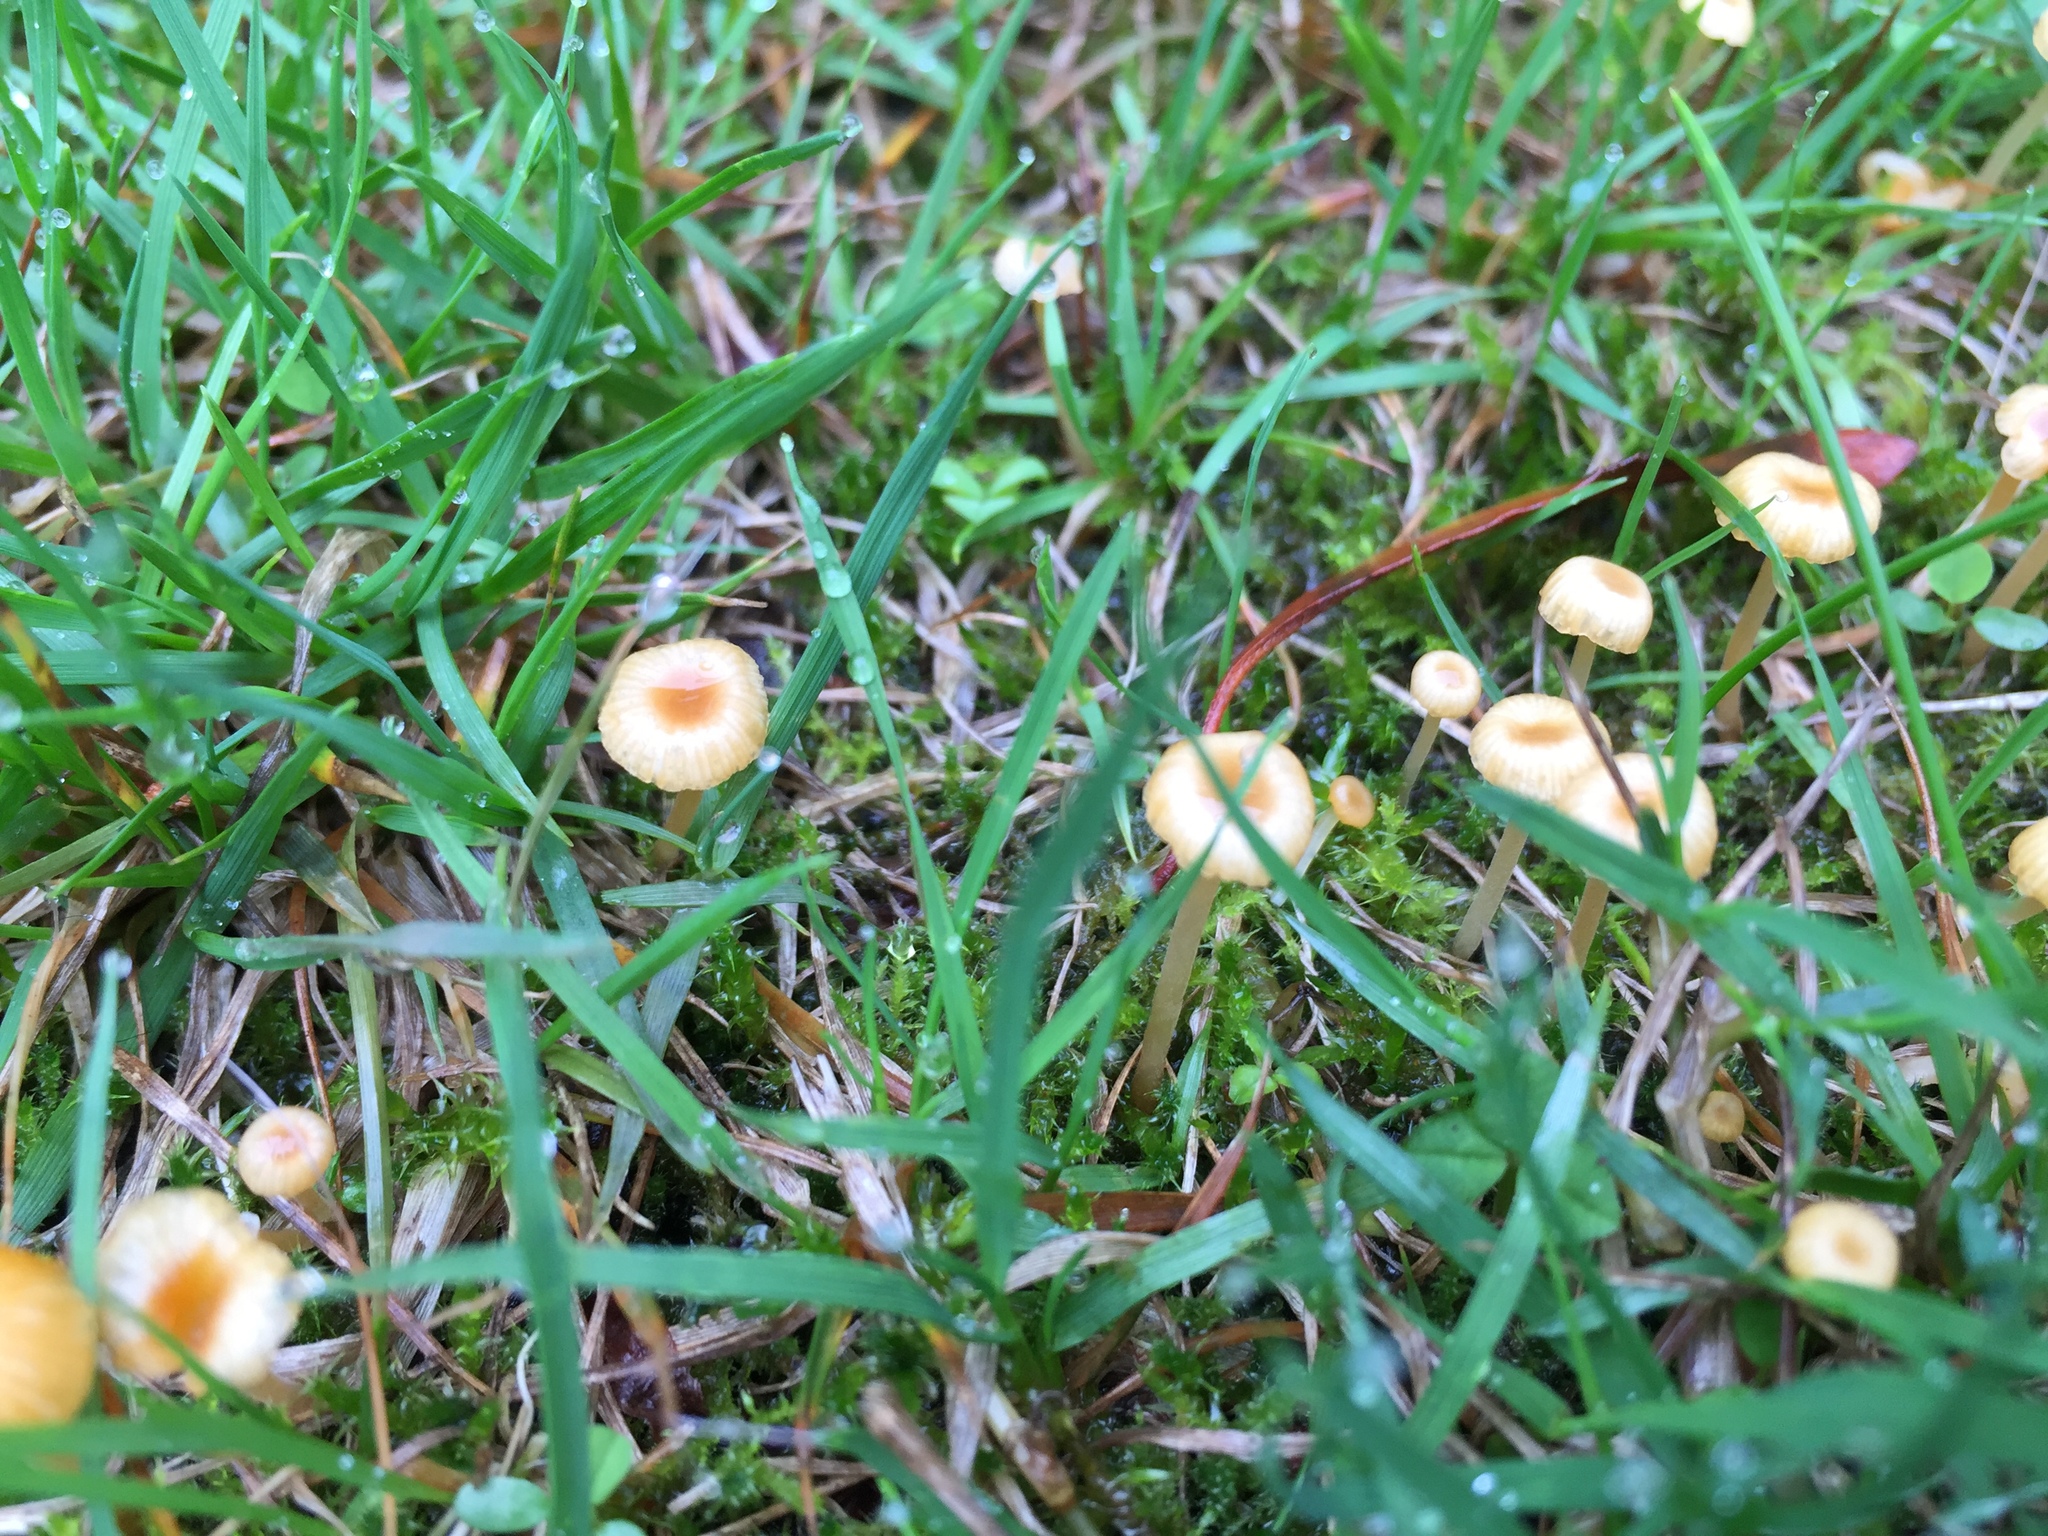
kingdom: Fungi
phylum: Basidiomycota
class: Agaricomycetes
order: Hymenochaetales
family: Rickenellaceae
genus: Rickenella
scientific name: Rickenella fibula
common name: Orange mosscap
